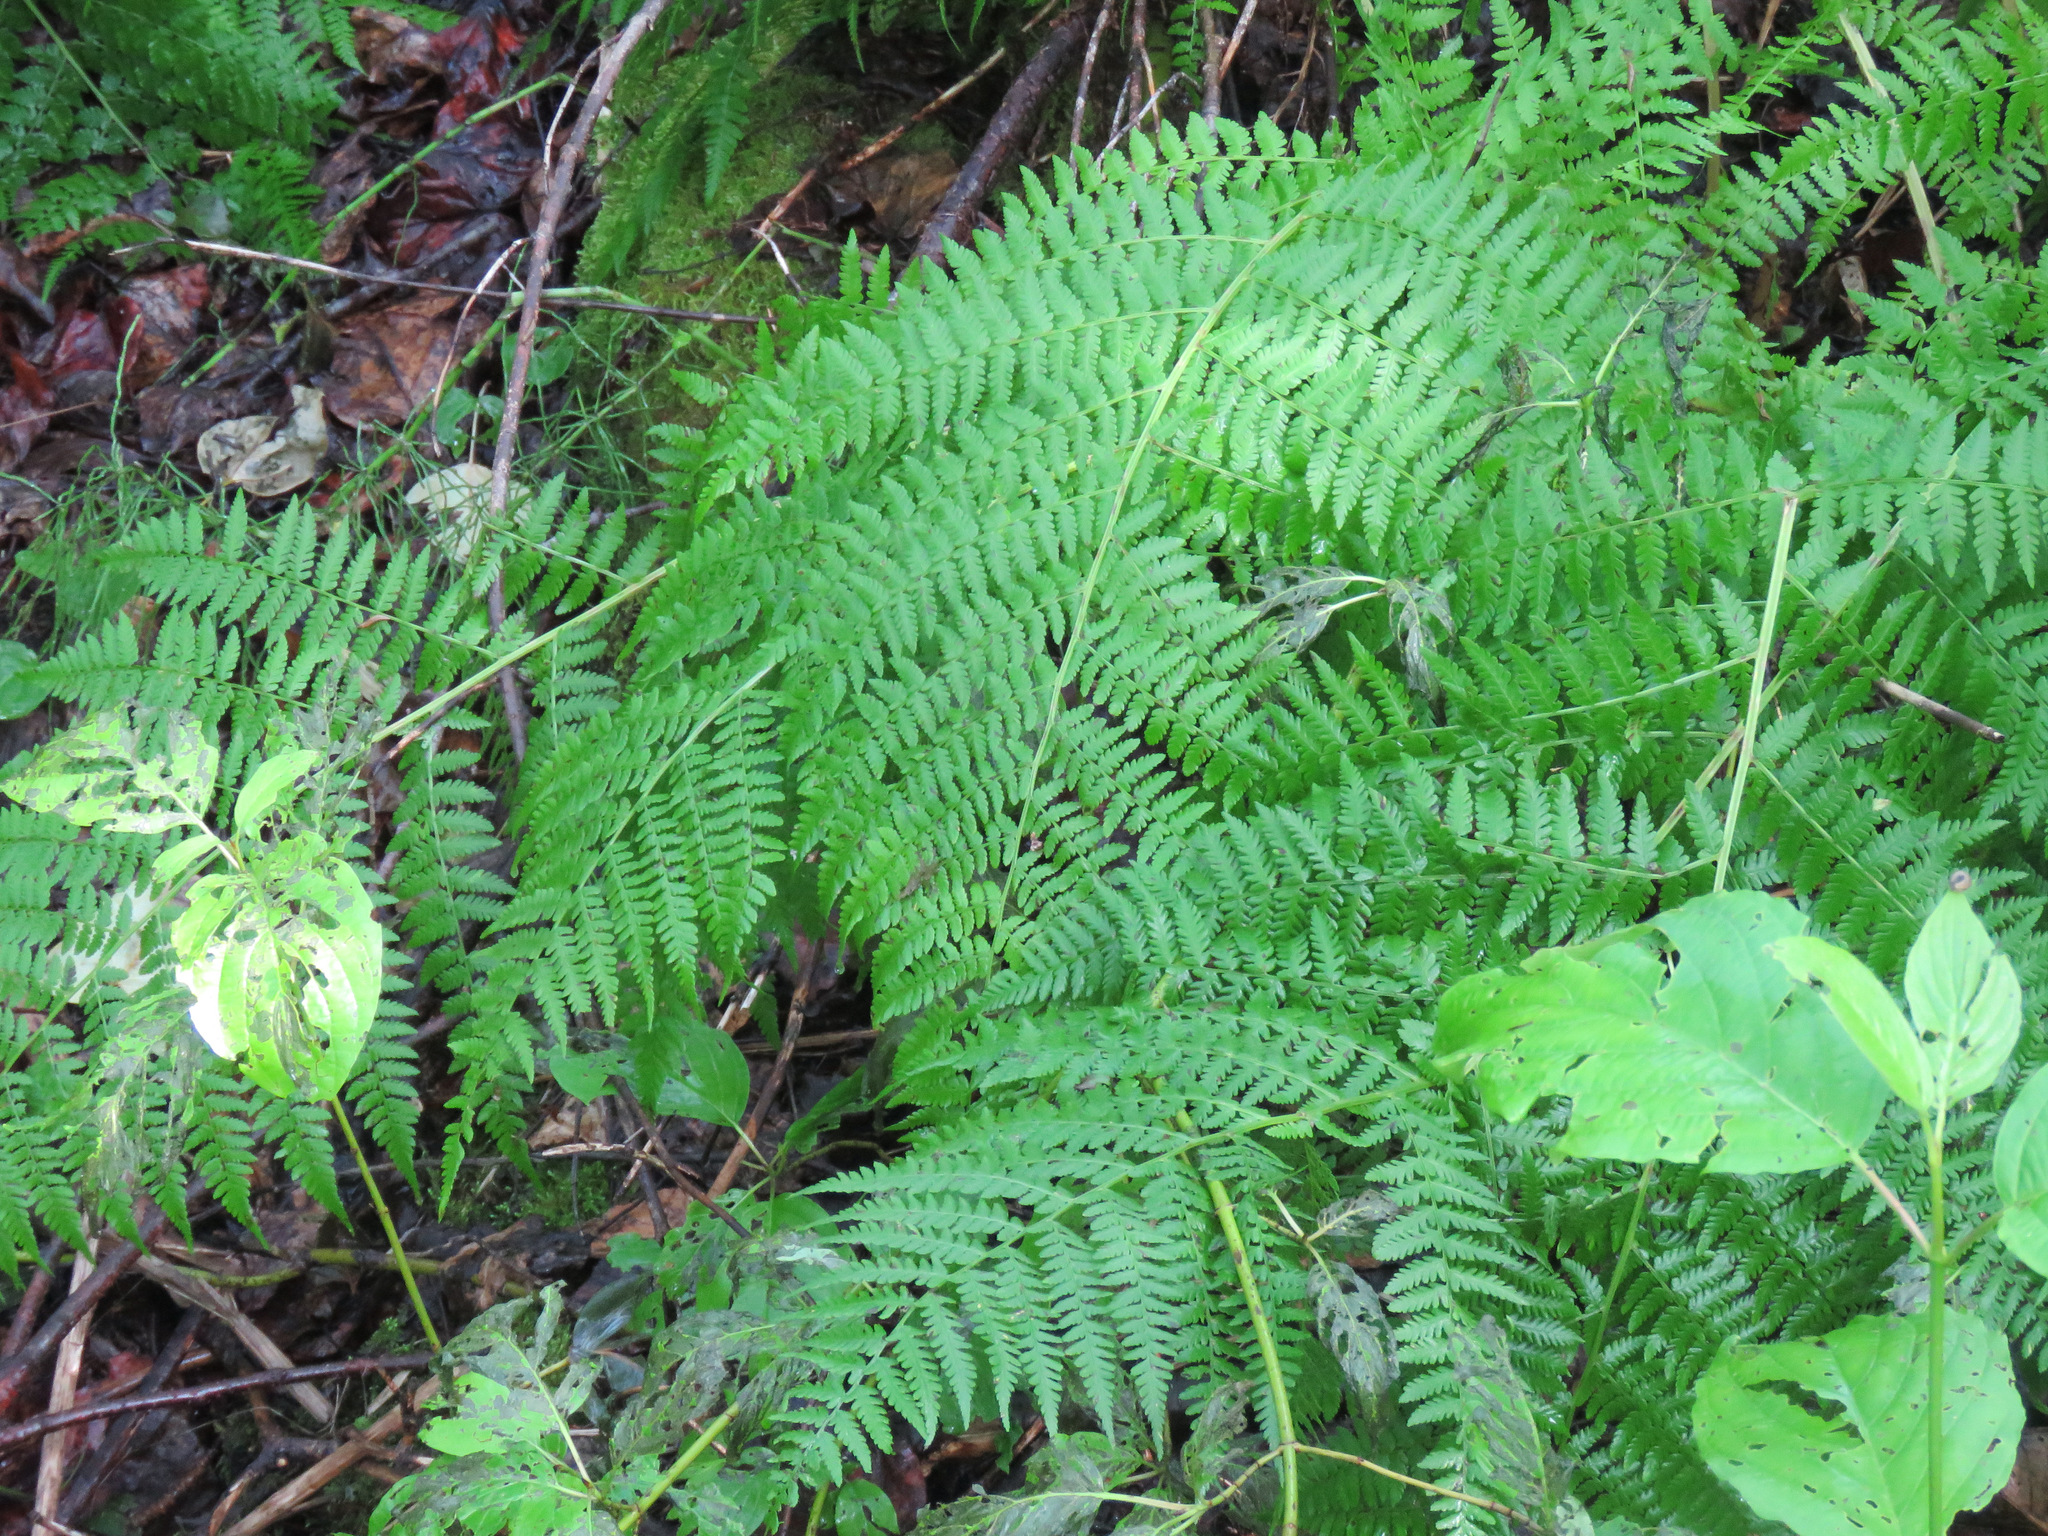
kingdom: Plantae
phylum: Tracheophyta
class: Polypodiopsida
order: Polypodiales
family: Athyriaceae
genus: Athyrium
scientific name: Athyrium filix-femina
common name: Lady fern
